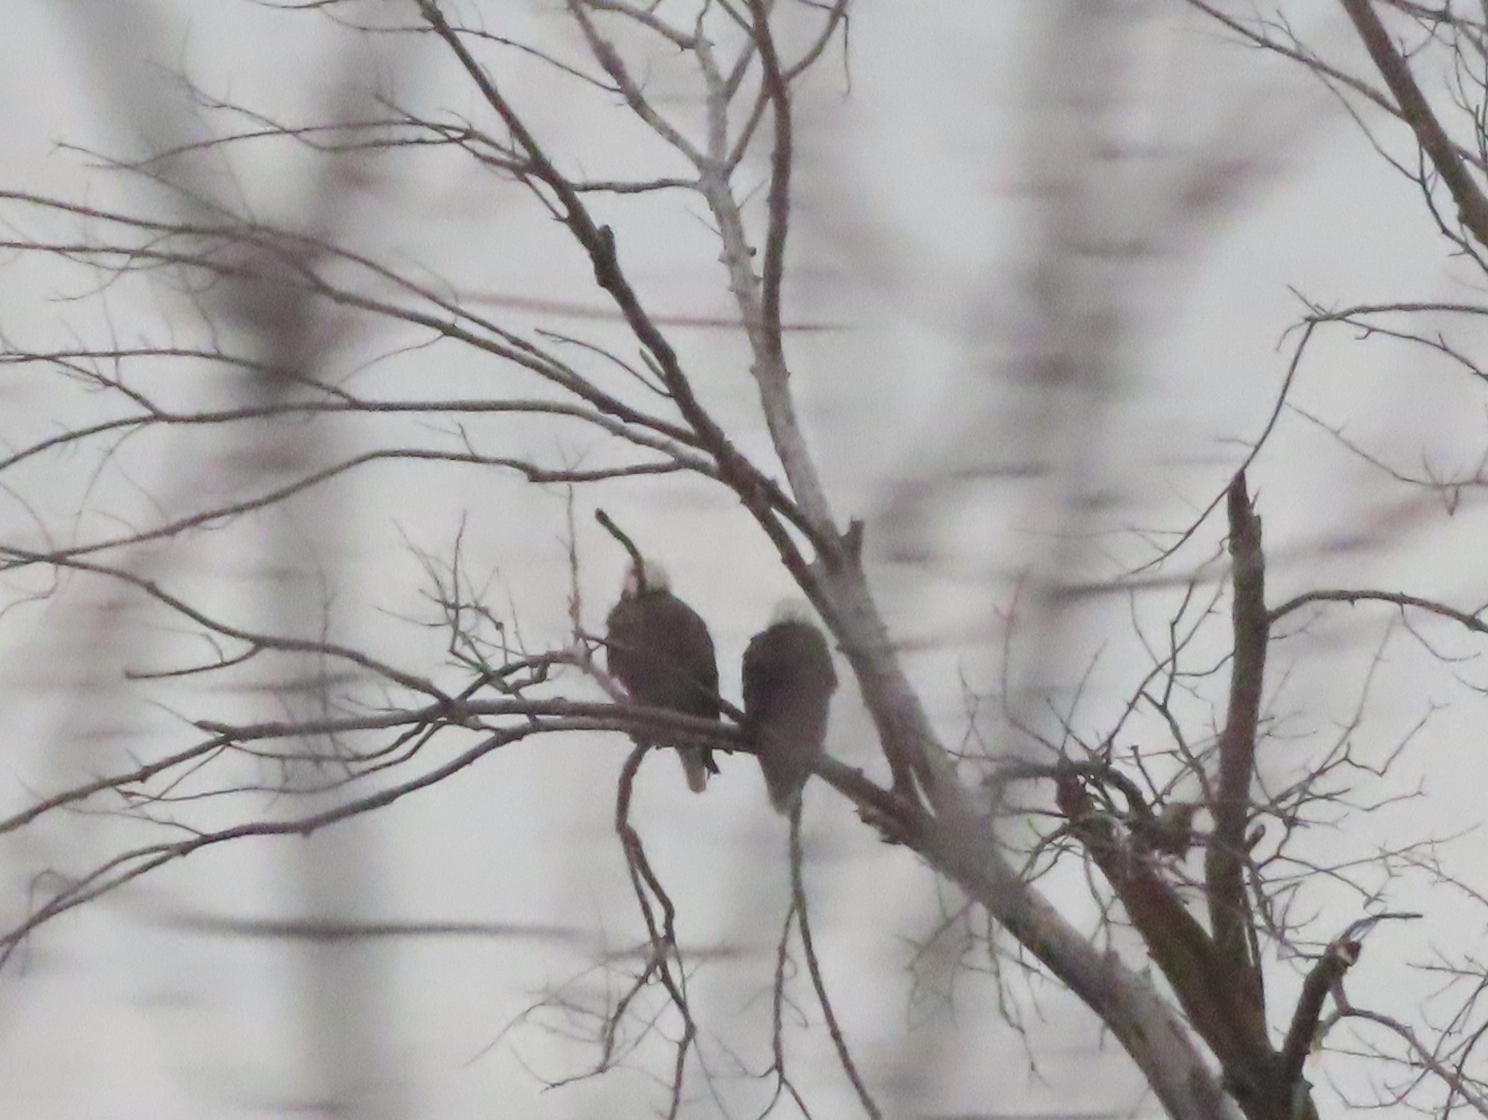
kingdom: Animalia
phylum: Chordata
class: Aves
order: Accipitriformes
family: Accipitridae
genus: Haliaeetus
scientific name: Haliaeetus leucocephalus
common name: Bald eagle
